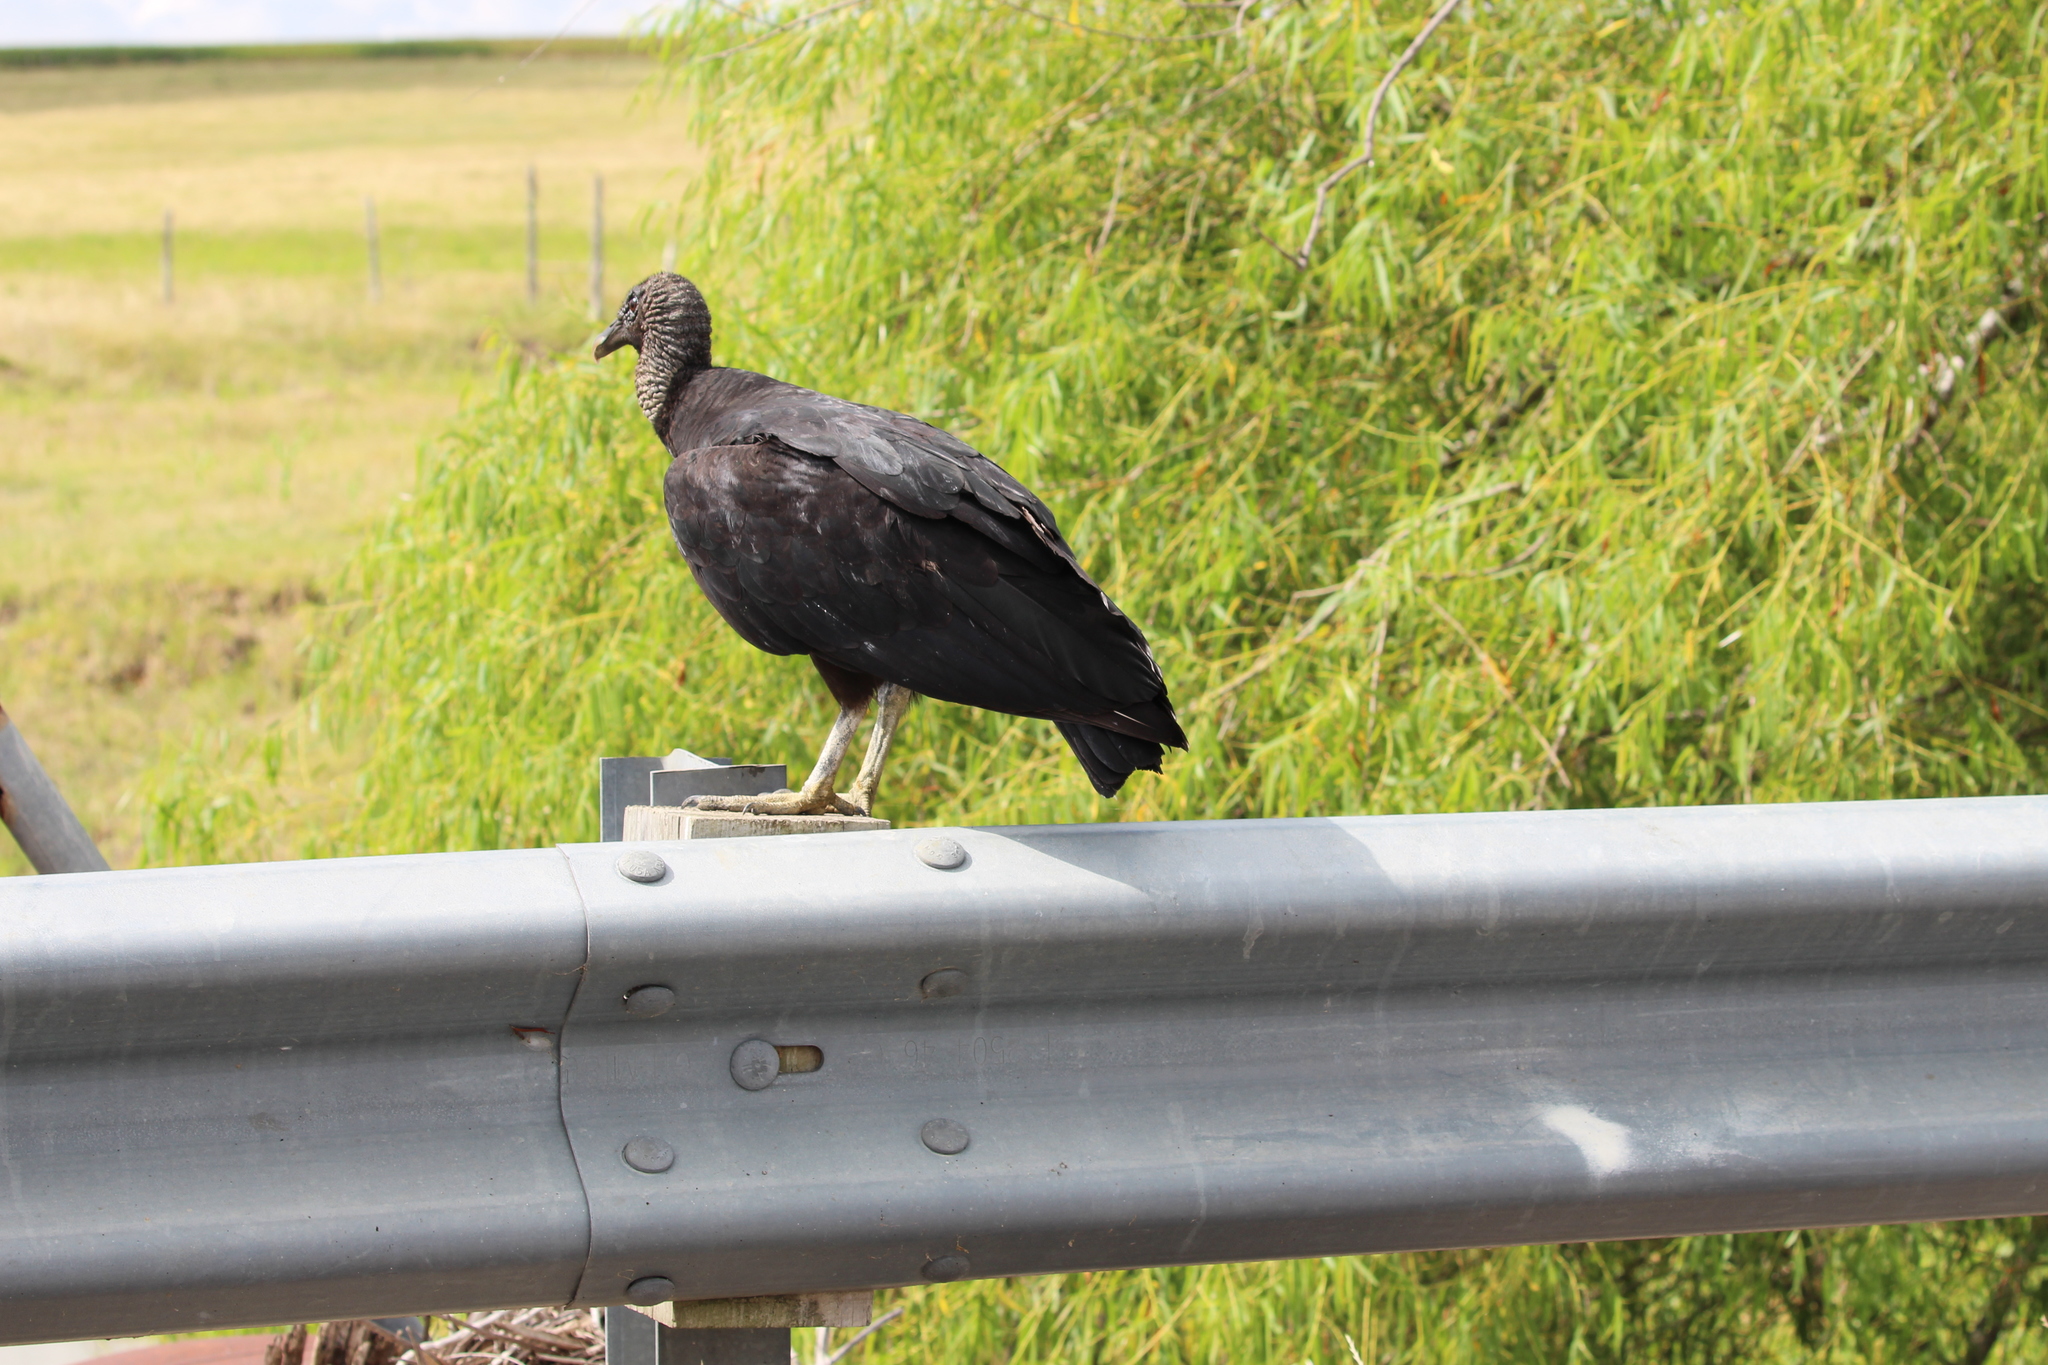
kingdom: Animalia
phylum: Chordata
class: Aves
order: Accipitriformes
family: Cathartidae
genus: Coragyps
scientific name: Coragyps atratus
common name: Black vulture
